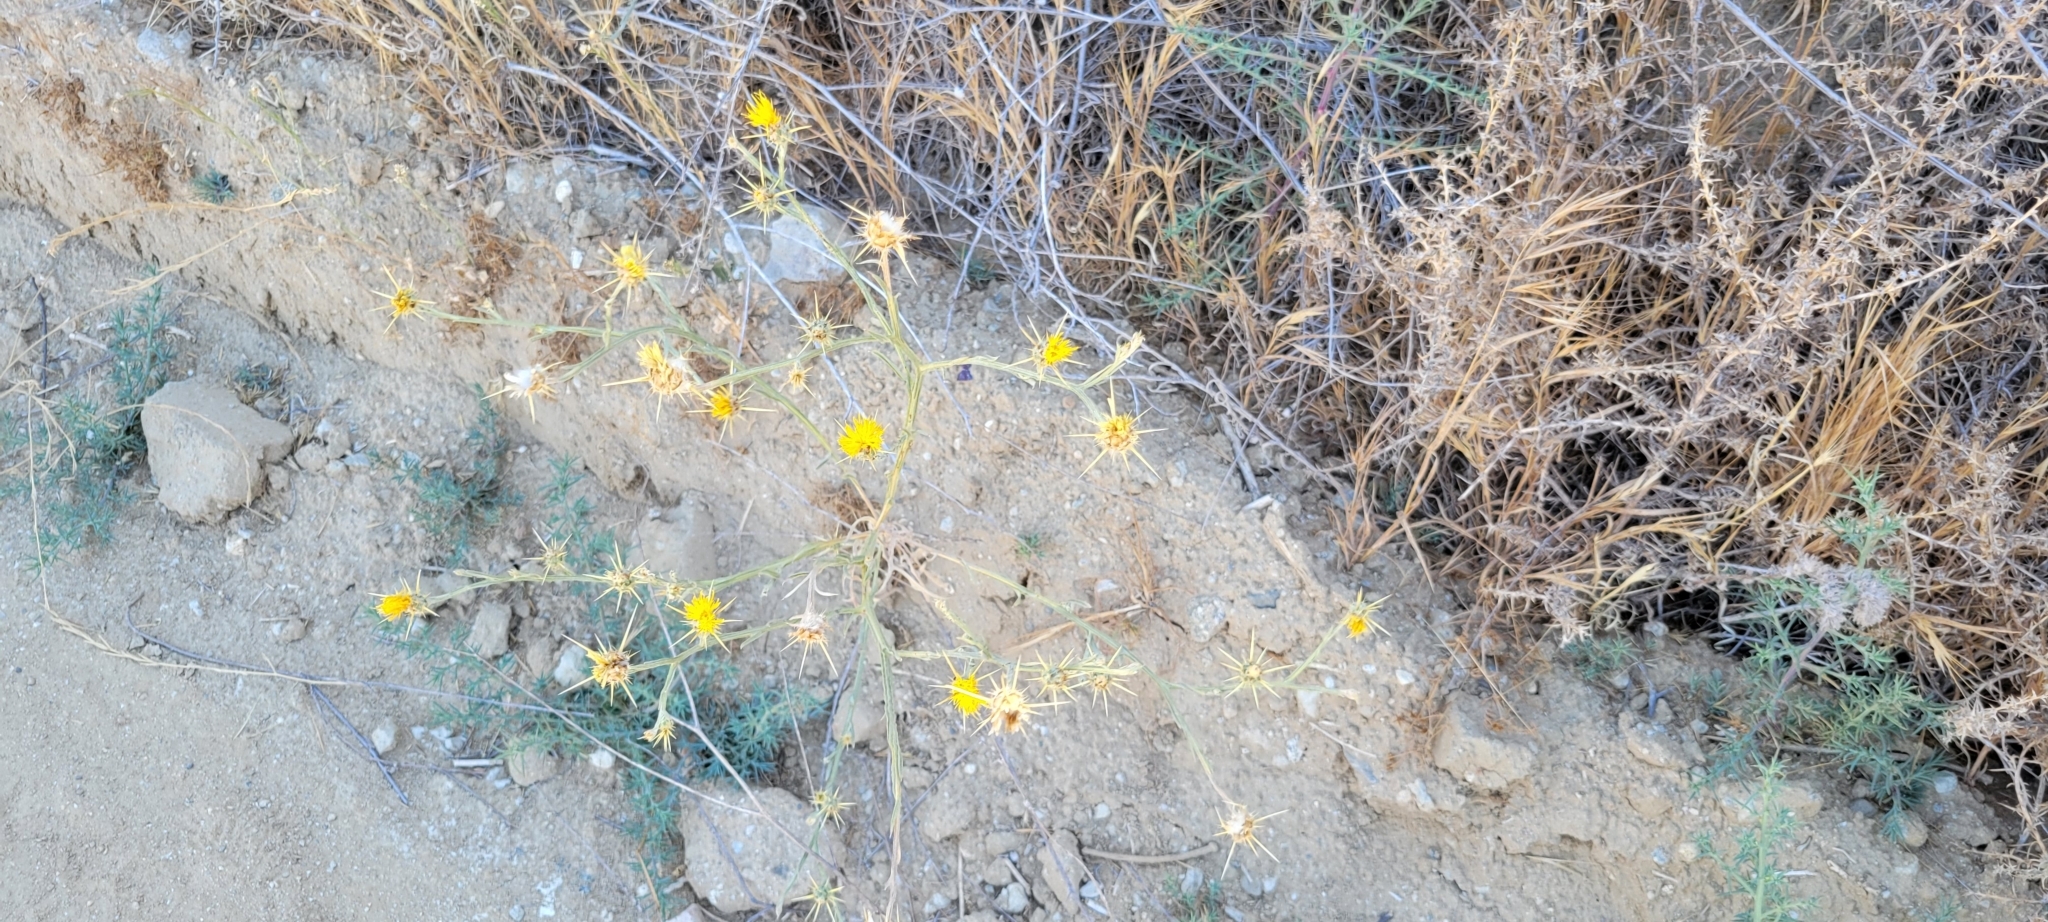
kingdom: Plantae
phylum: Tracheophyta
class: Magnoliopsida
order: Asterales
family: Asteraceae
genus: Centaurea
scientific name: Centaurea solstitialis
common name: Yellow star-thistle
